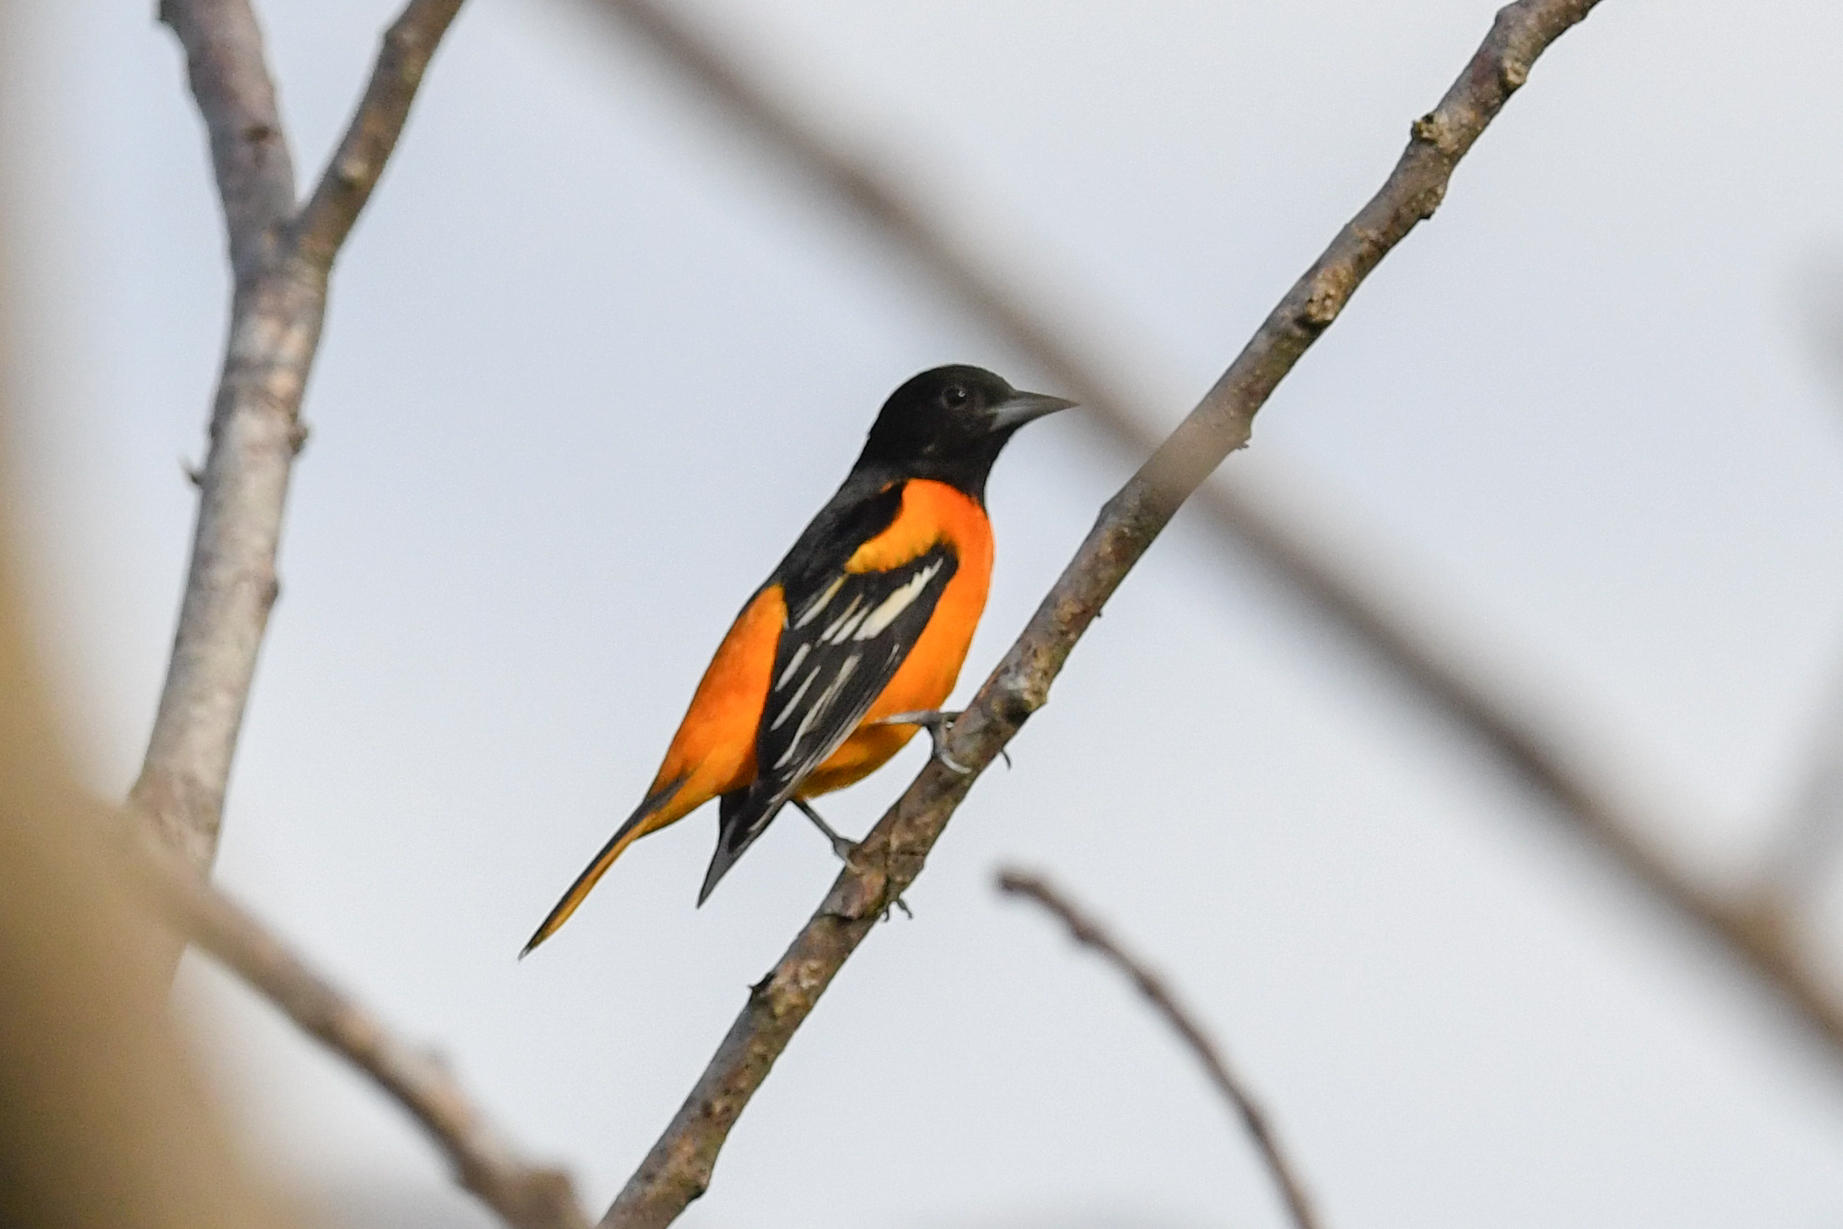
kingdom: Animalia
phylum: Chordata
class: Aves
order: Passeriformes
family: Icteridae
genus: Icterus
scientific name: Icterus galbula
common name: Baltimore oriole
